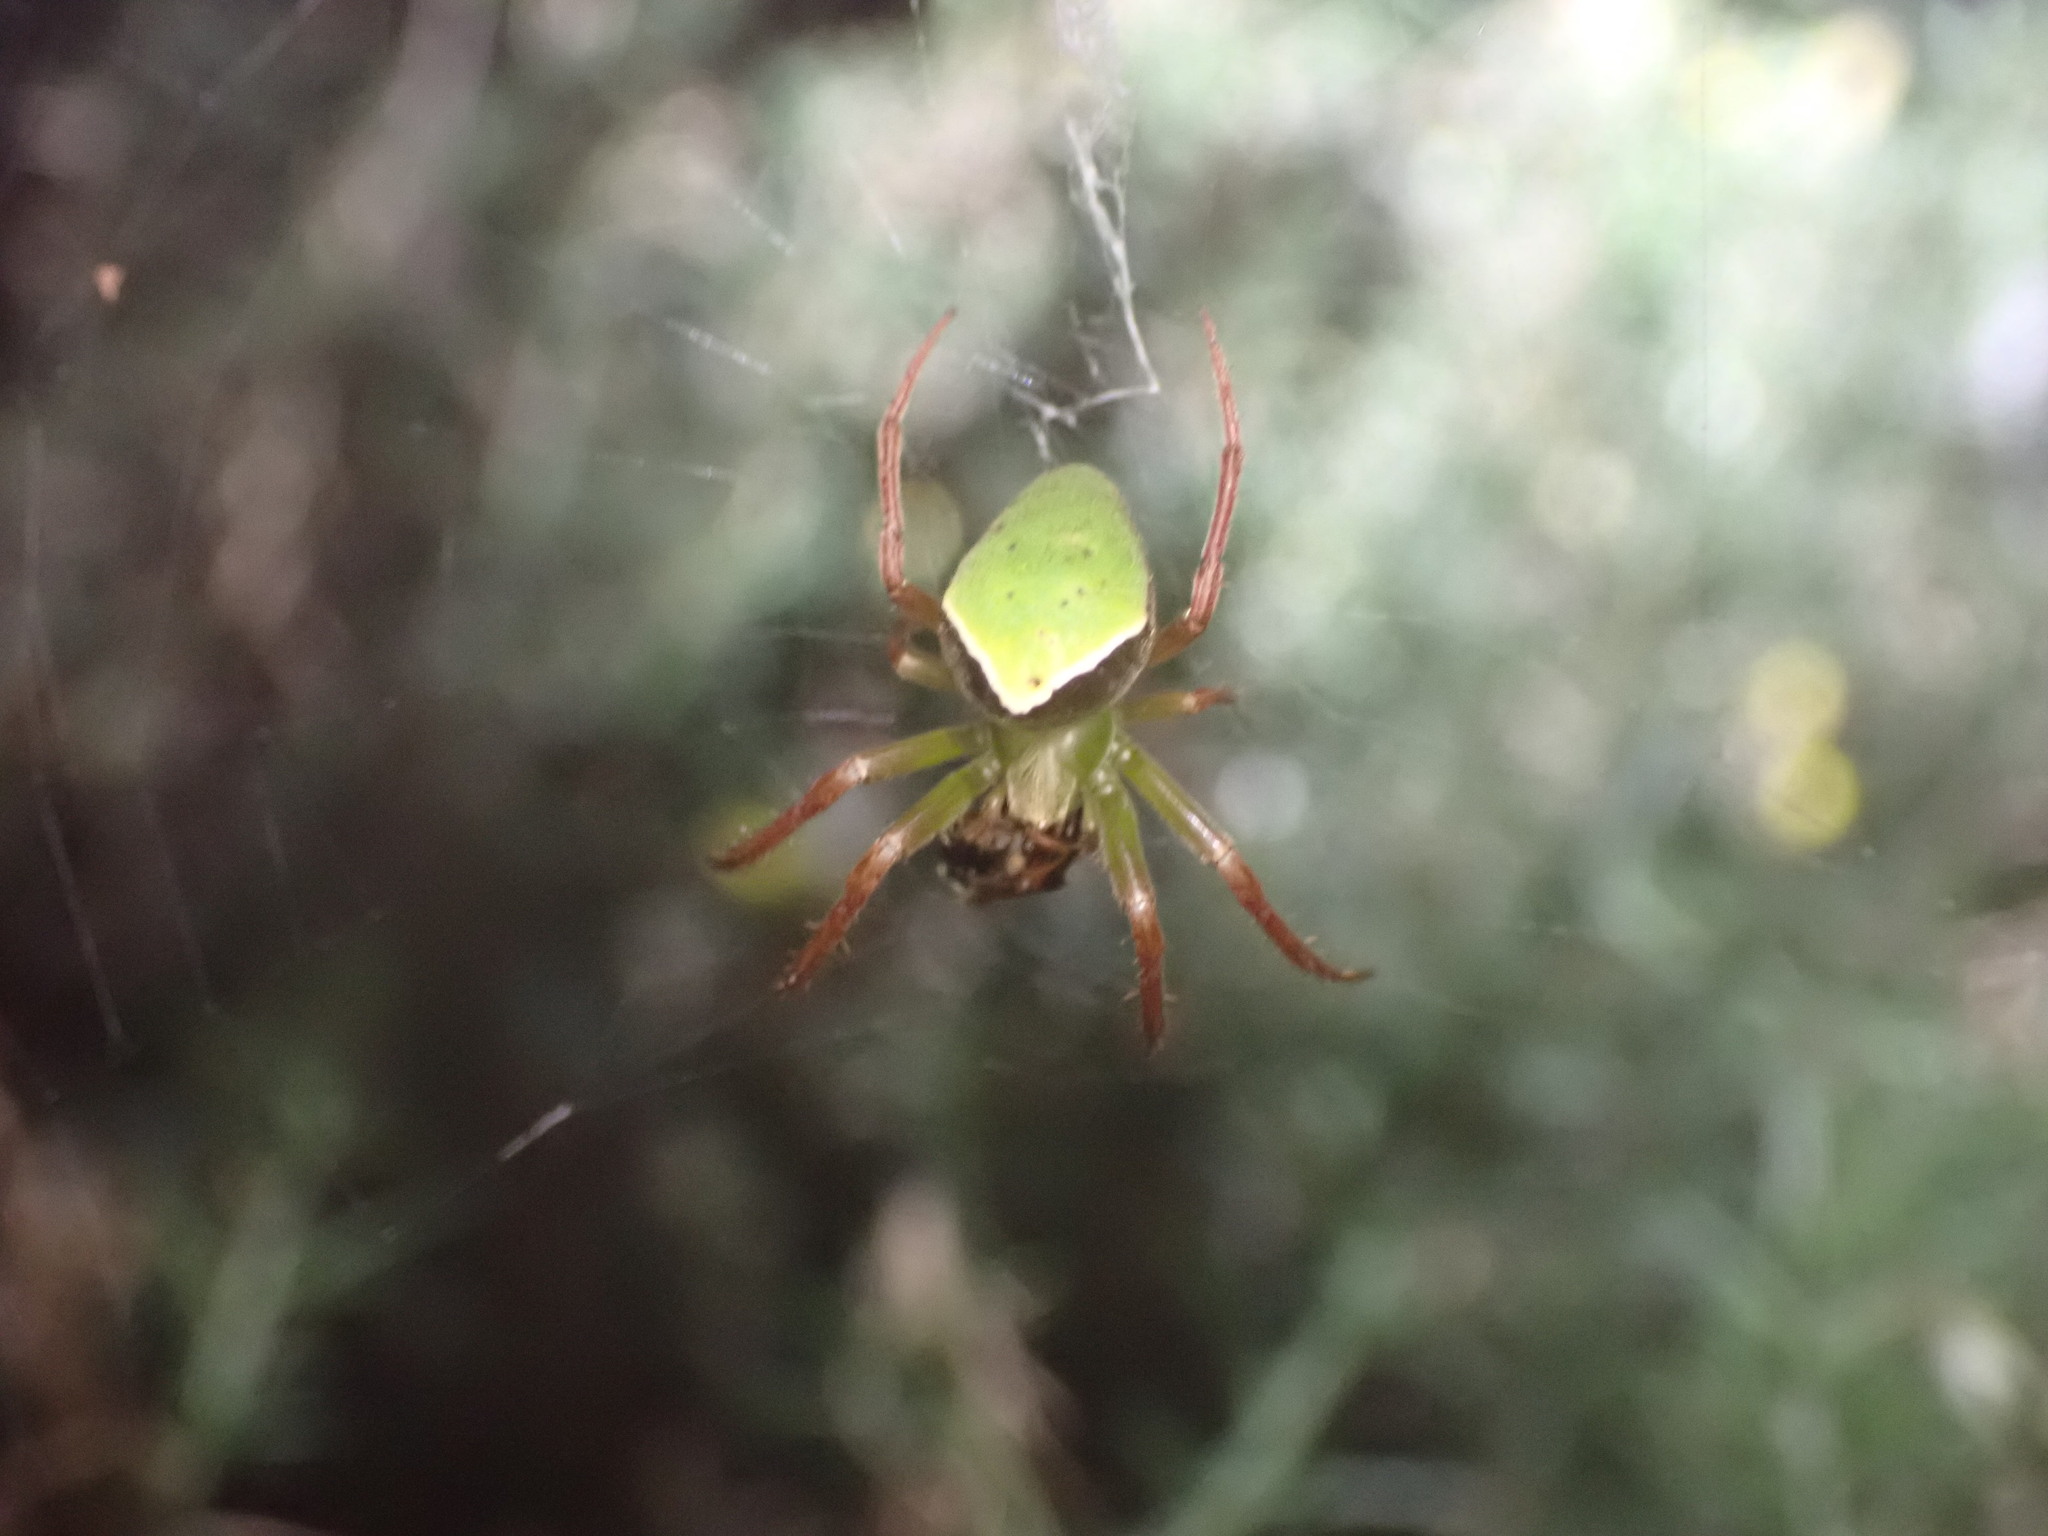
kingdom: Animalia
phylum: Arthropoda
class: Arachnida
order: Araneae
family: Araneidae
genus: Colaranea
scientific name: Colaranea viriditas
